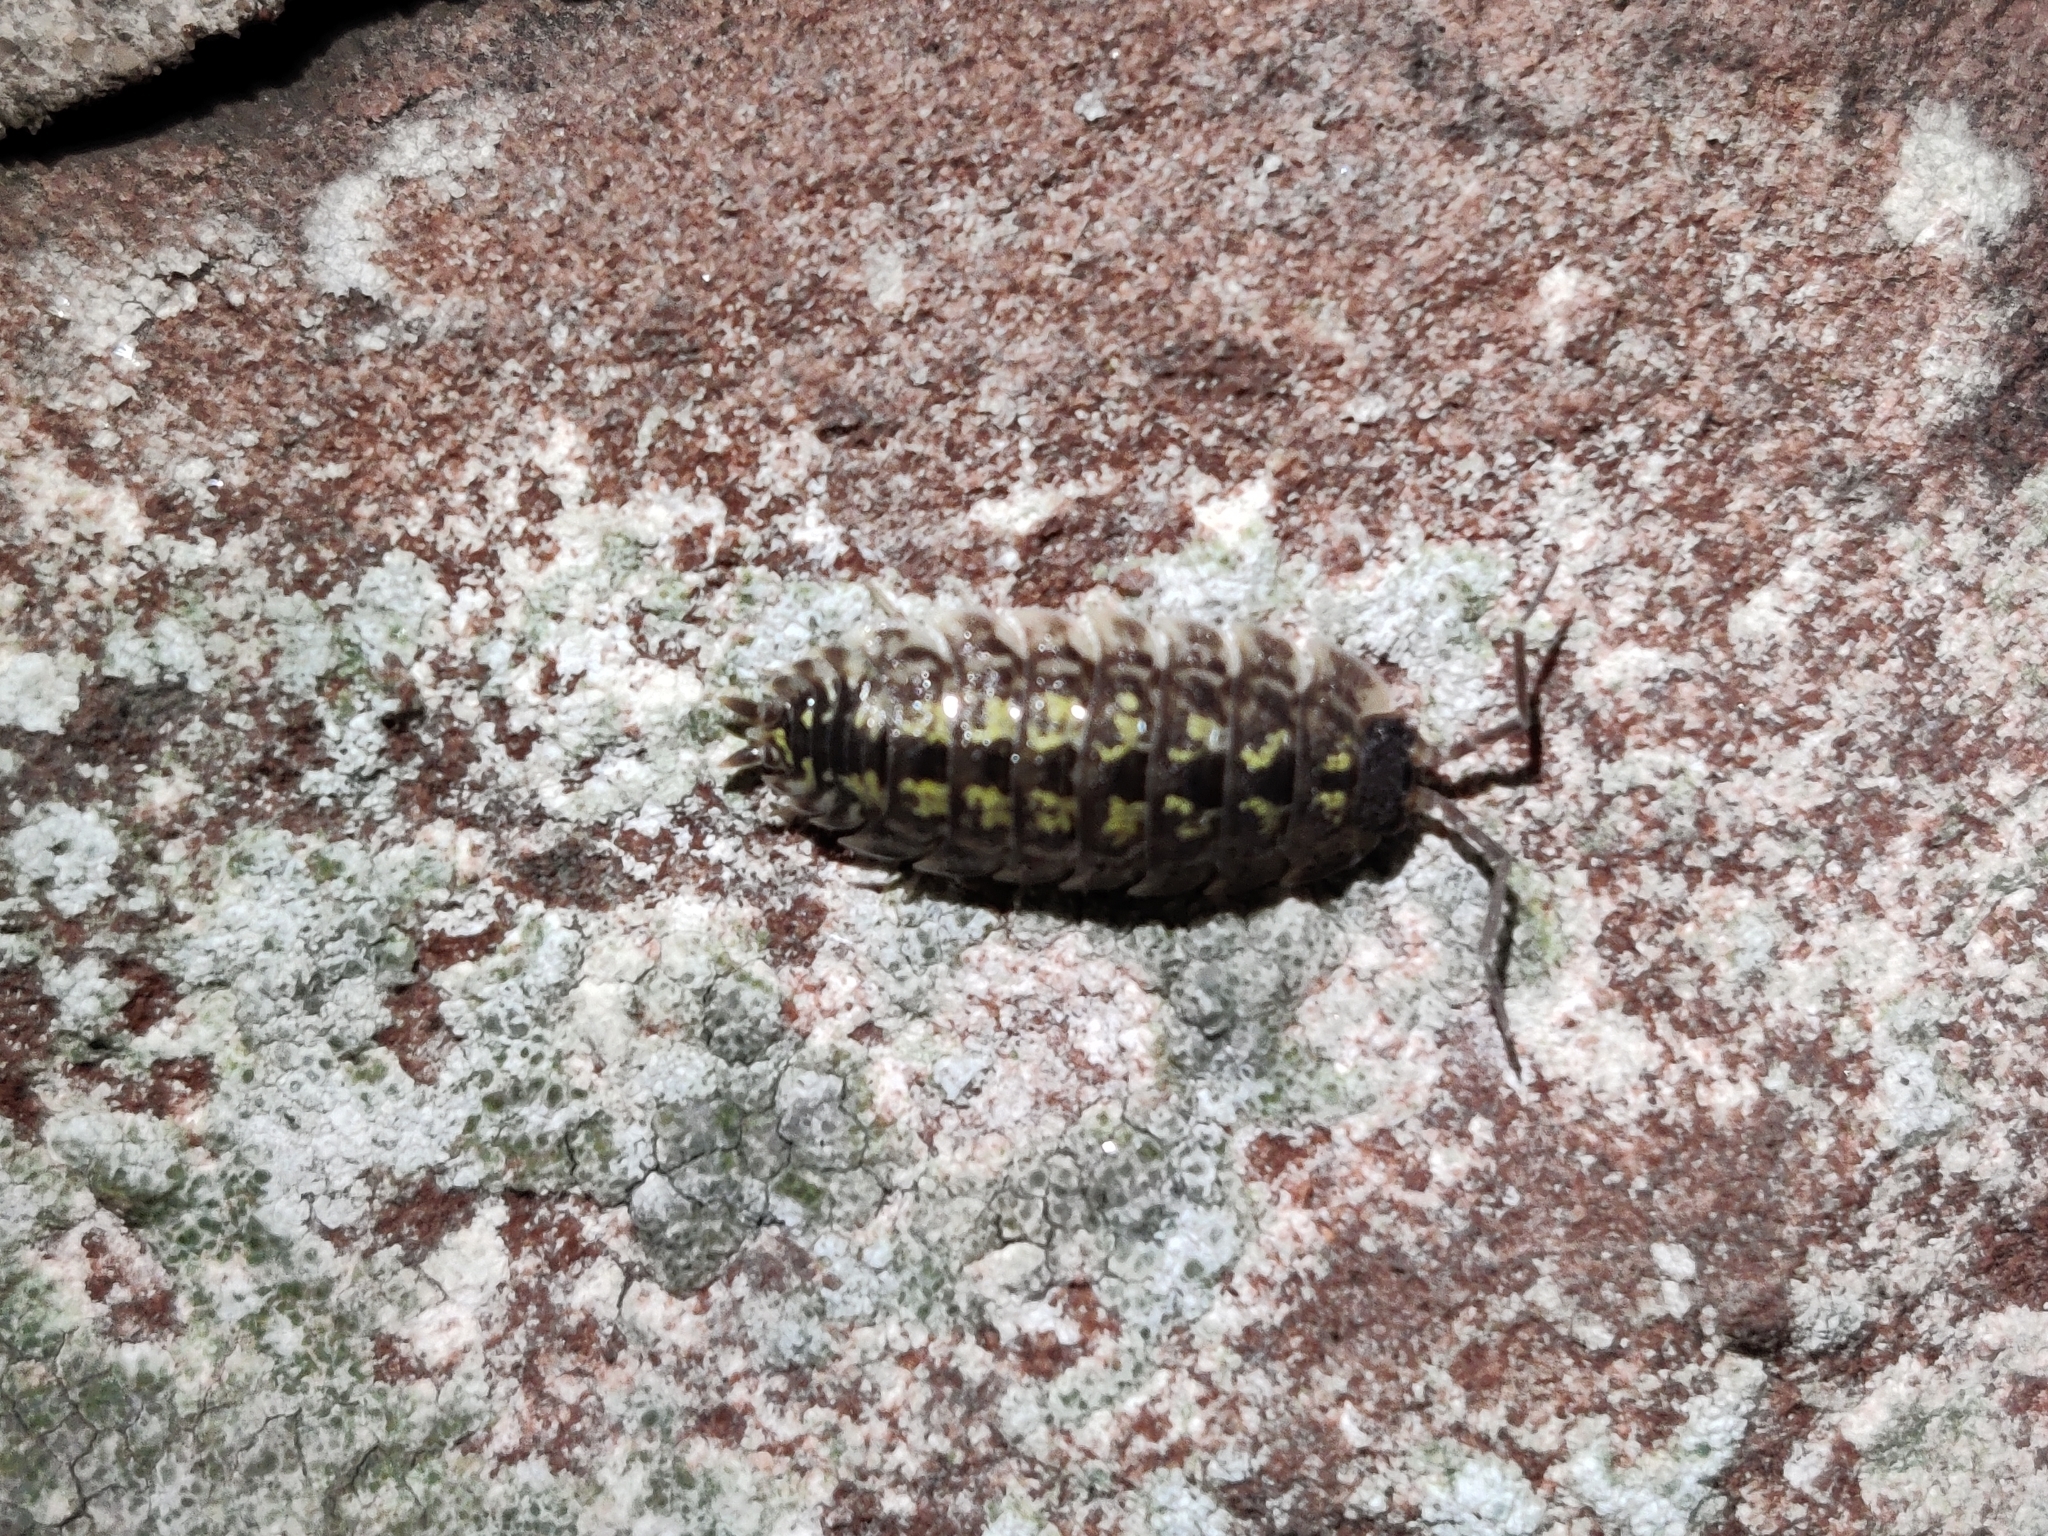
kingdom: Animalia
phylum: Arthropoda
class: Malacostraca
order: Isopoda
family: Porcellionidae
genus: Porcellio
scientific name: Porcellio spinicornis
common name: Painted woodlouse
